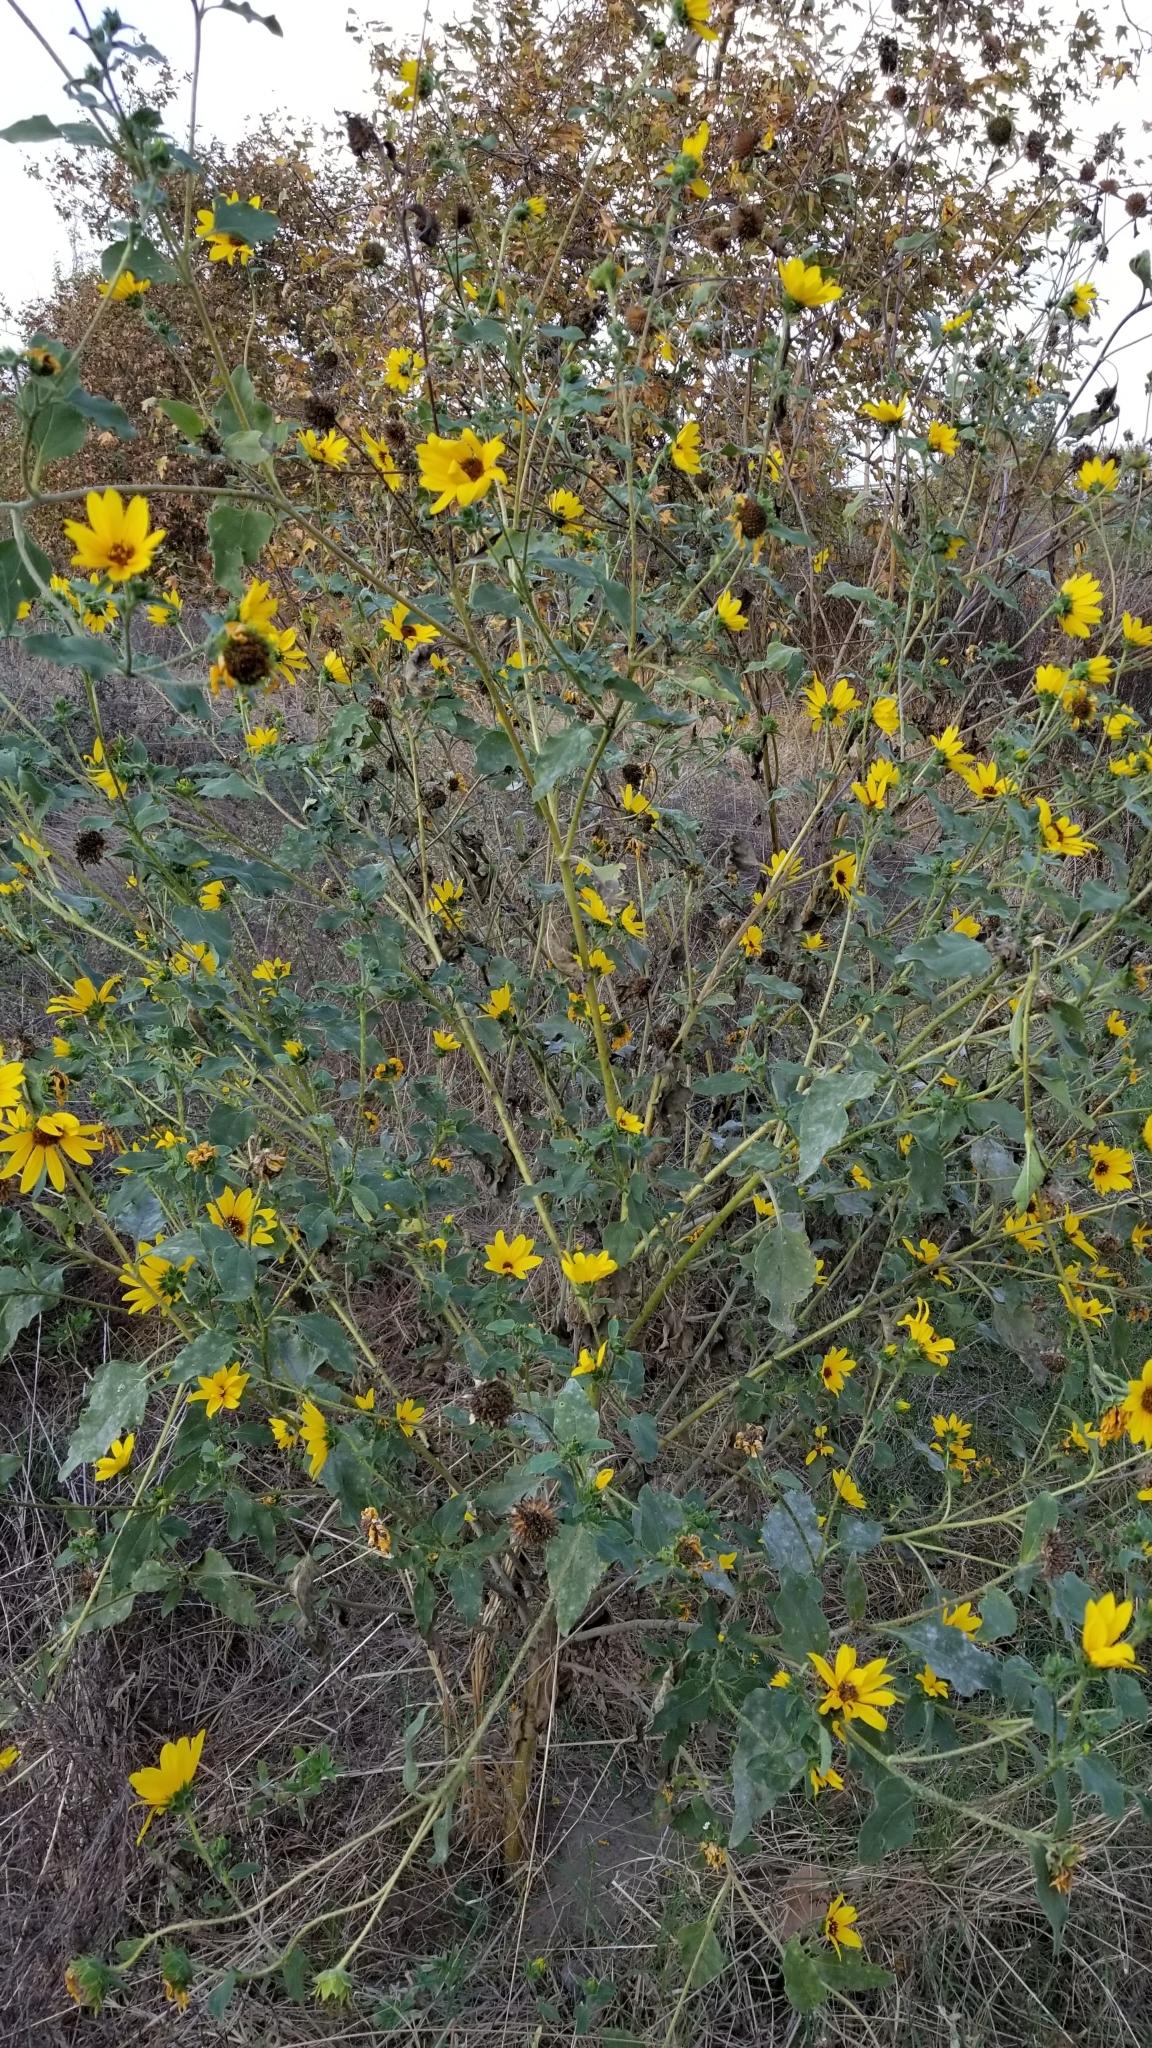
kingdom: Plantae
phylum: Tracheophyta
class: Magnoliopsida
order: Asterales
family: Asteraceae
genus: Helianthus
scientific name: Helianthus annuus
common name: Sunflower
